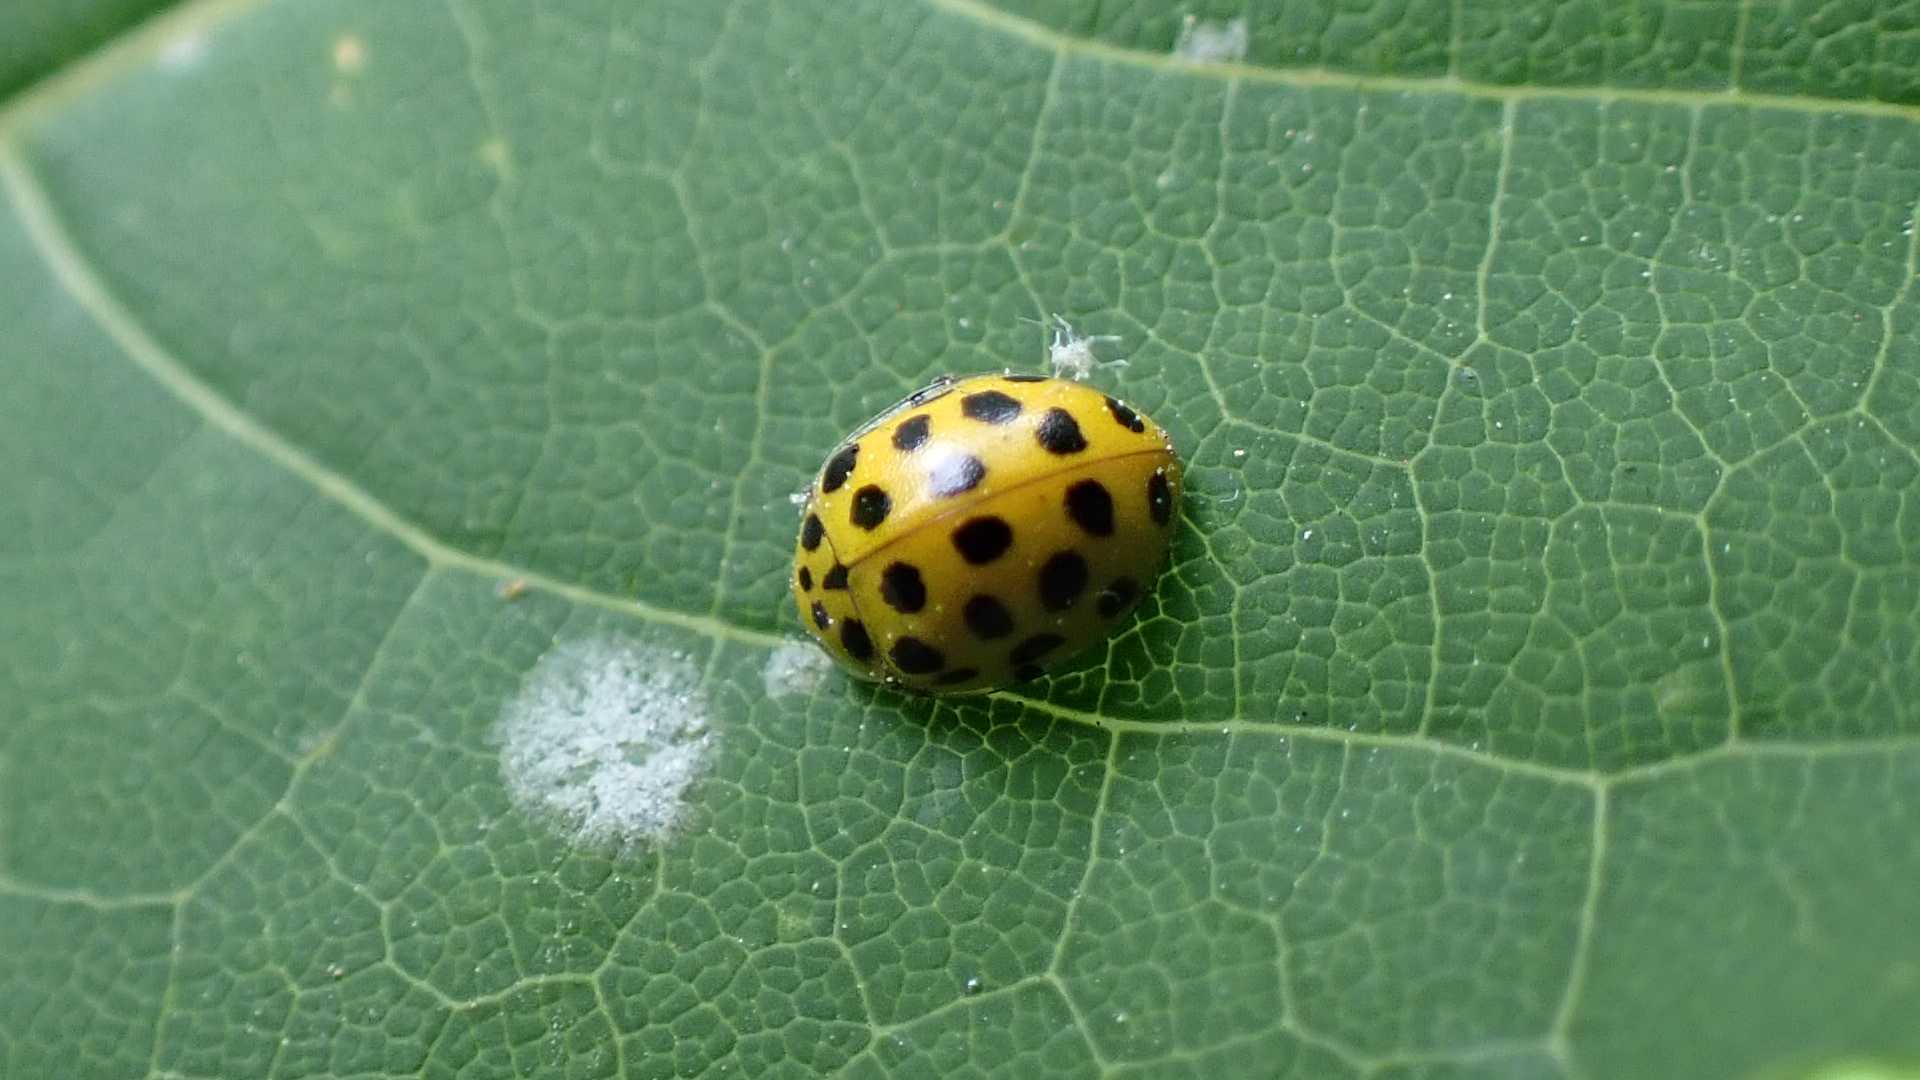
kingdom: Animalia
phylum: Arthropoda
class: Insecta
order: Coleoptera
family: Coccinellidae
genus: Psyllobora
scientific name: Psyllobora vigintiduopunctata
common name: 22-spot ladybird
